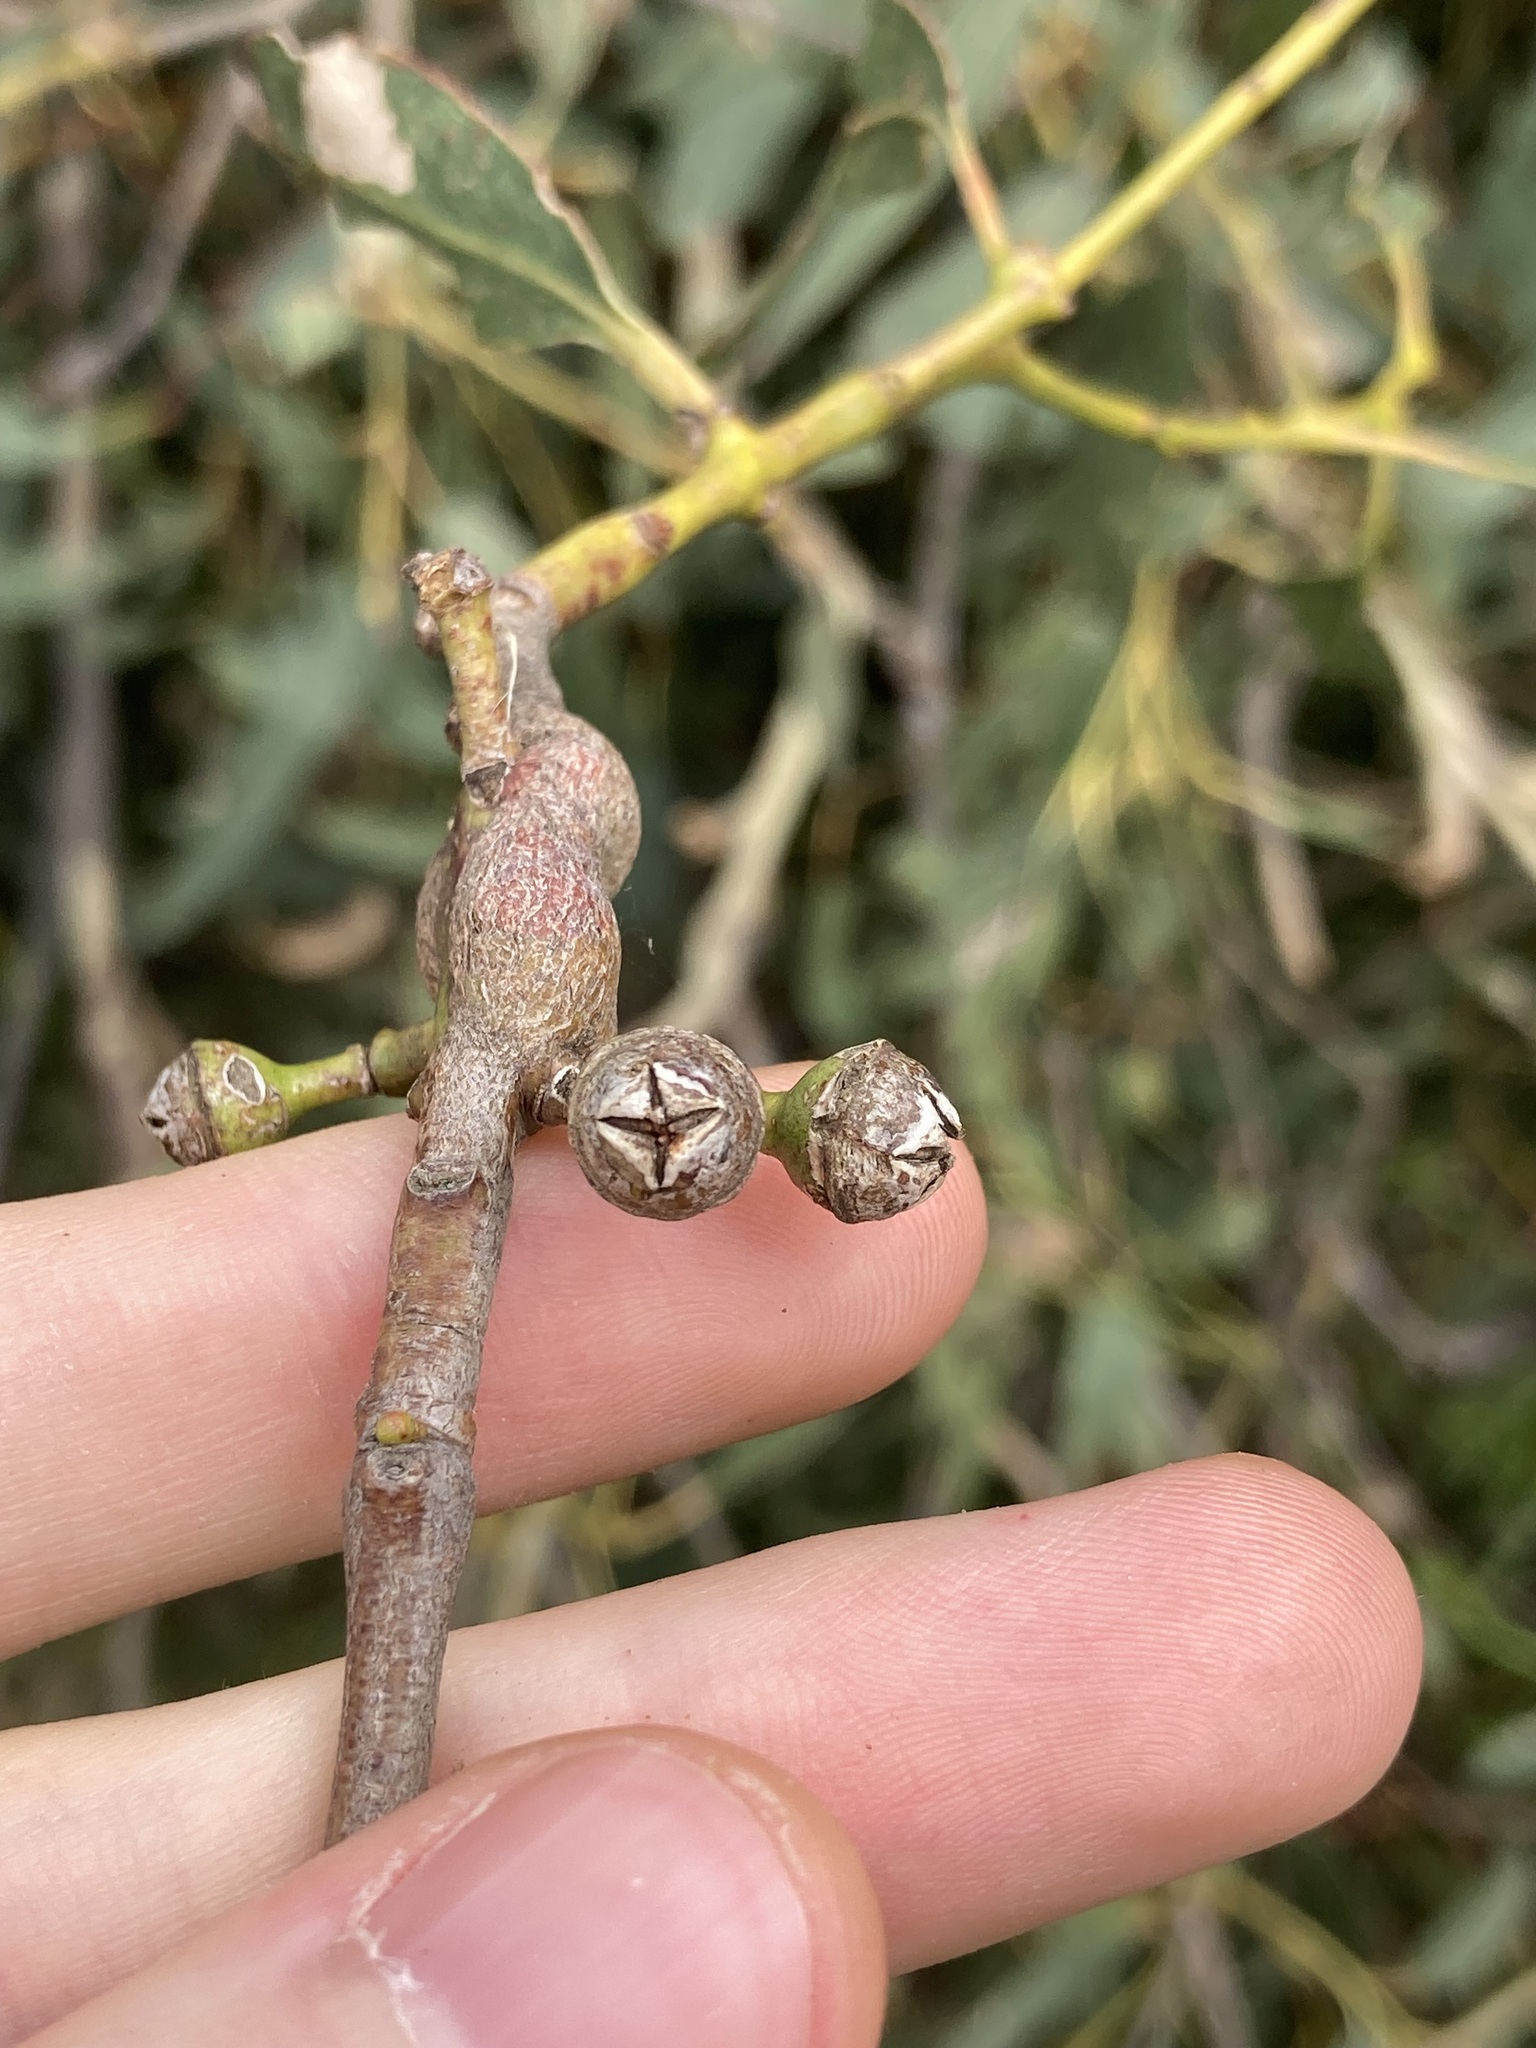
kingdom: Plantae
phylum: Tracheophyta
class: Magnoliopsida
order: Myrtales
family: Myrtaceae
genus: Eucalyptus
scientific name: Eucalyptus tereticornis
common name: Forest redgum
